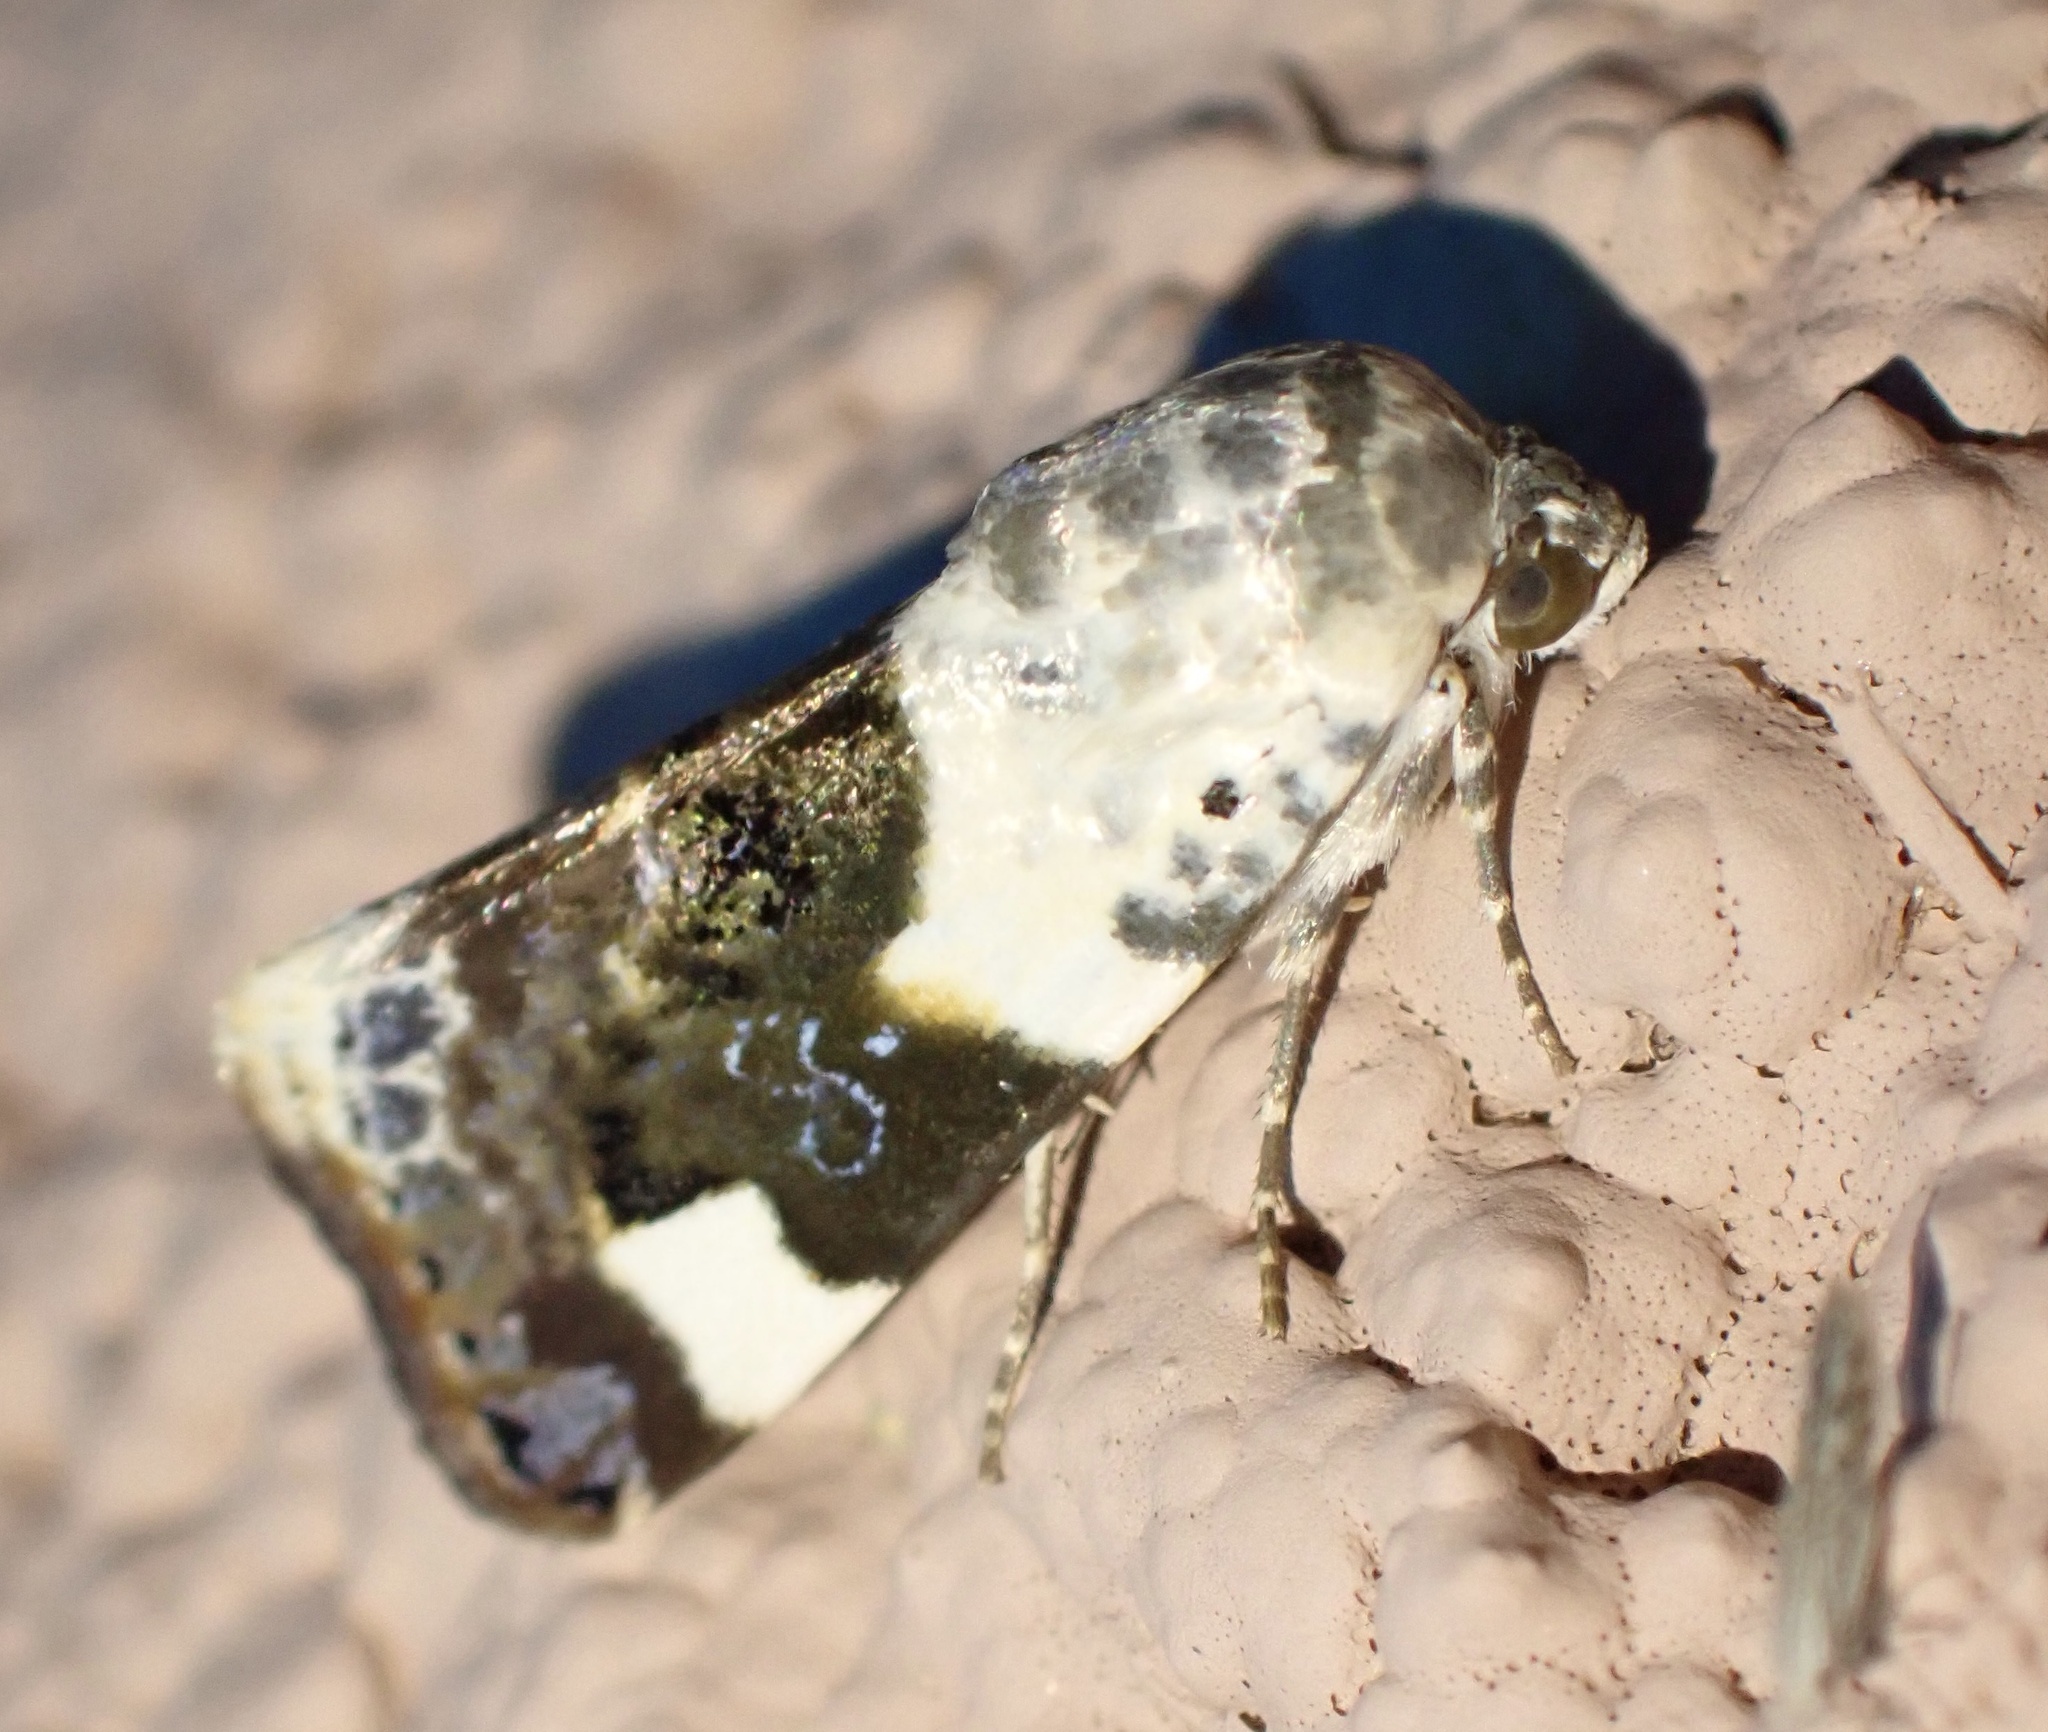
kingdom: Animalia
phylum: Arthropoda
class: Insecta
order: Lepidoptera
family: Noctuidae
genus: Acontia
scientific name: Acontia lucida
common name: Pale shoulder
